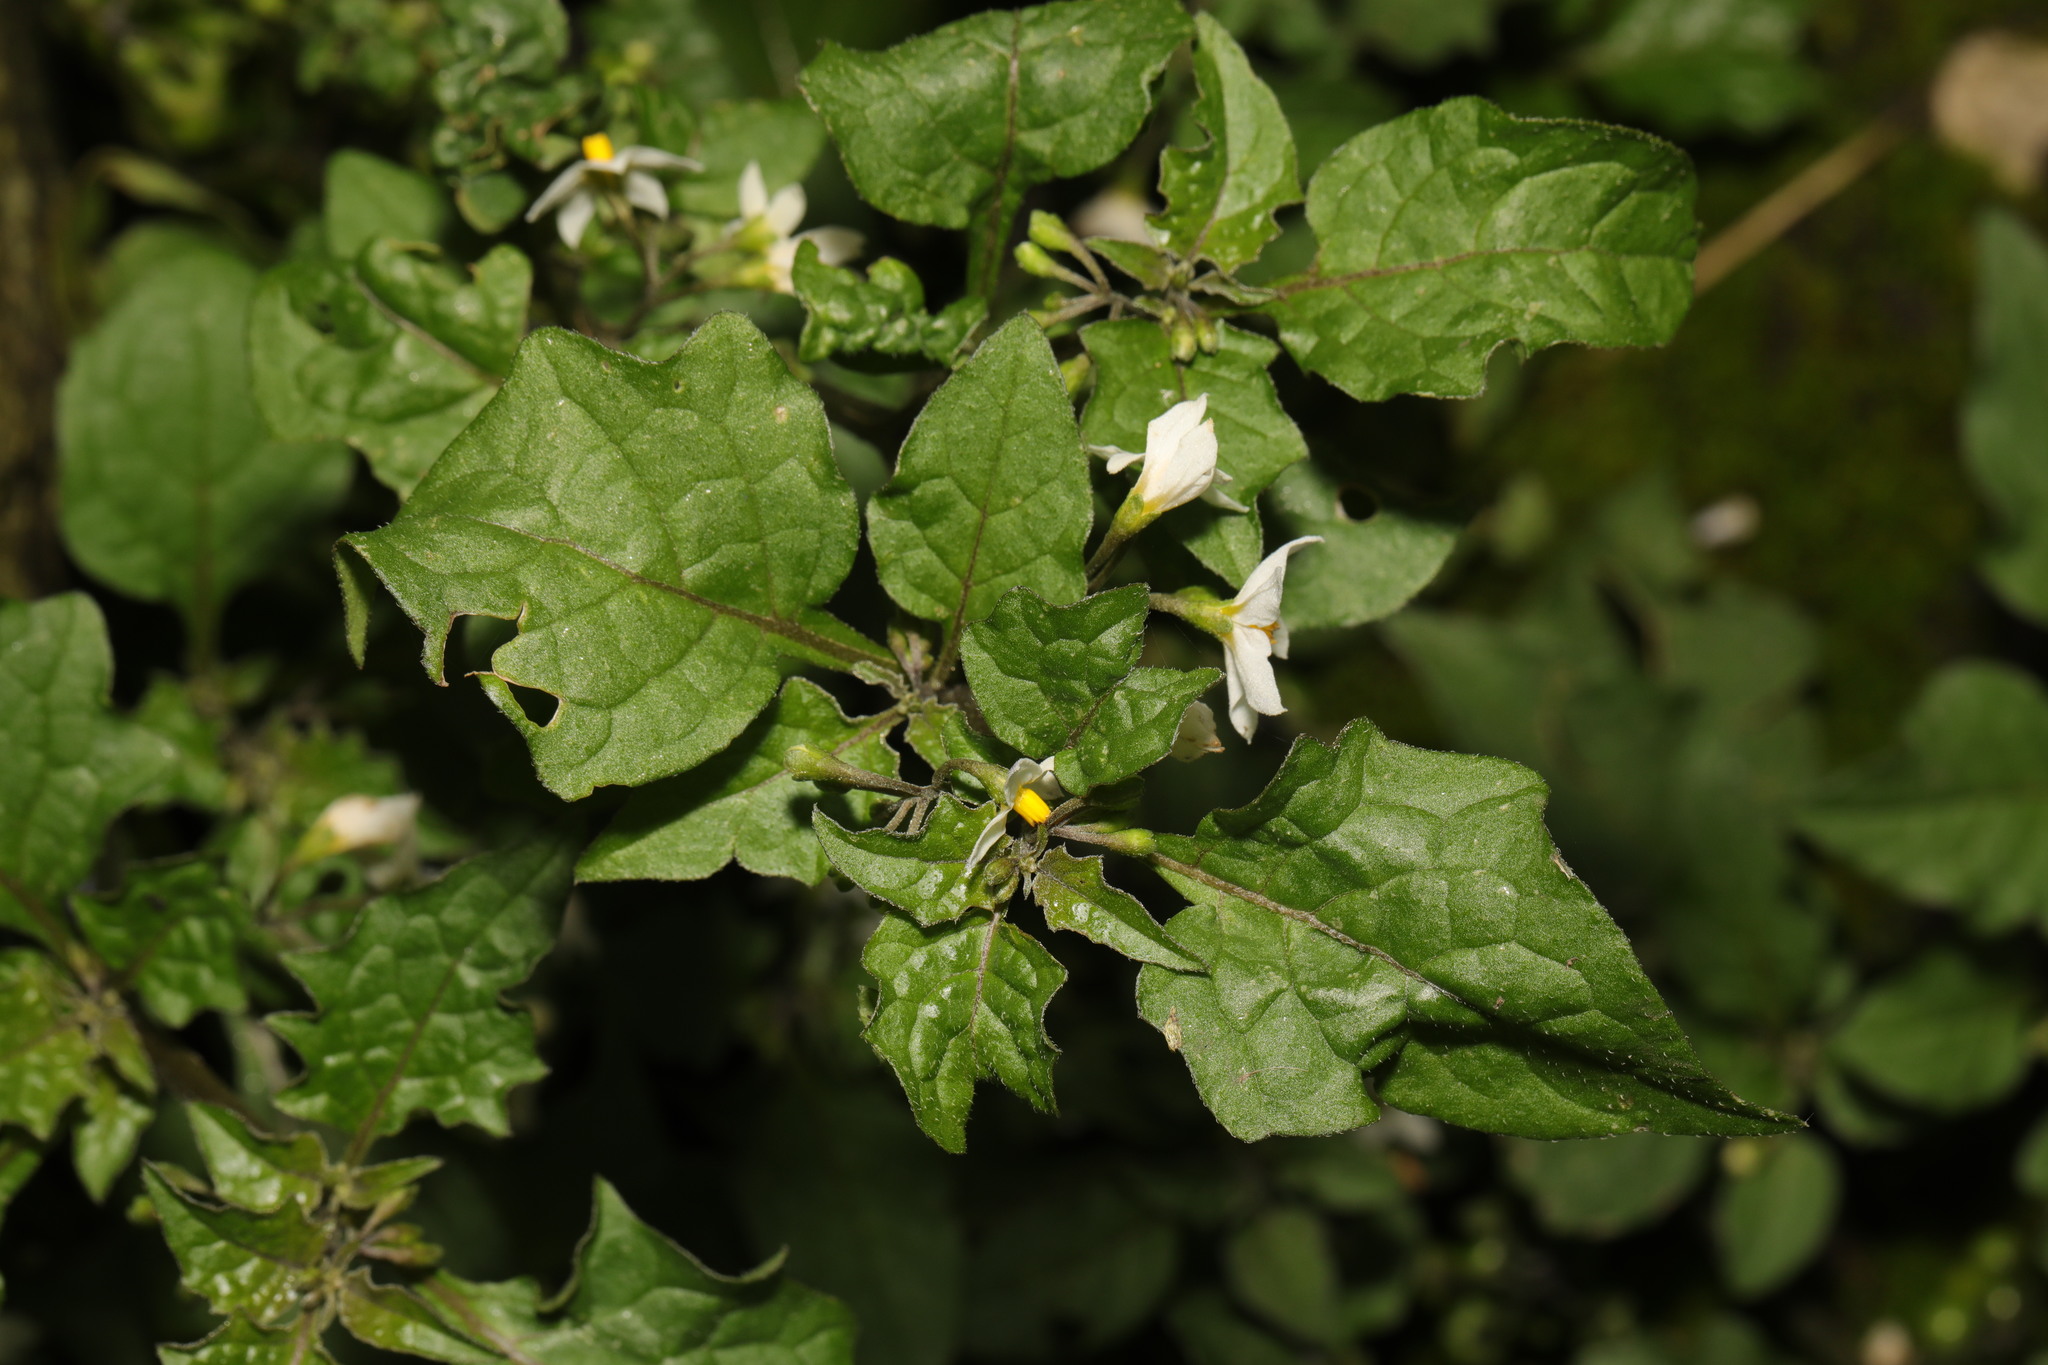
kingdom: Plantae
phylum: Tracheophyta
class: Magnoliopsida
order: Solanales
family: Solanaceae
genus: Solanum
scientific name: Solanum nigrum
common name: Black nightshade
